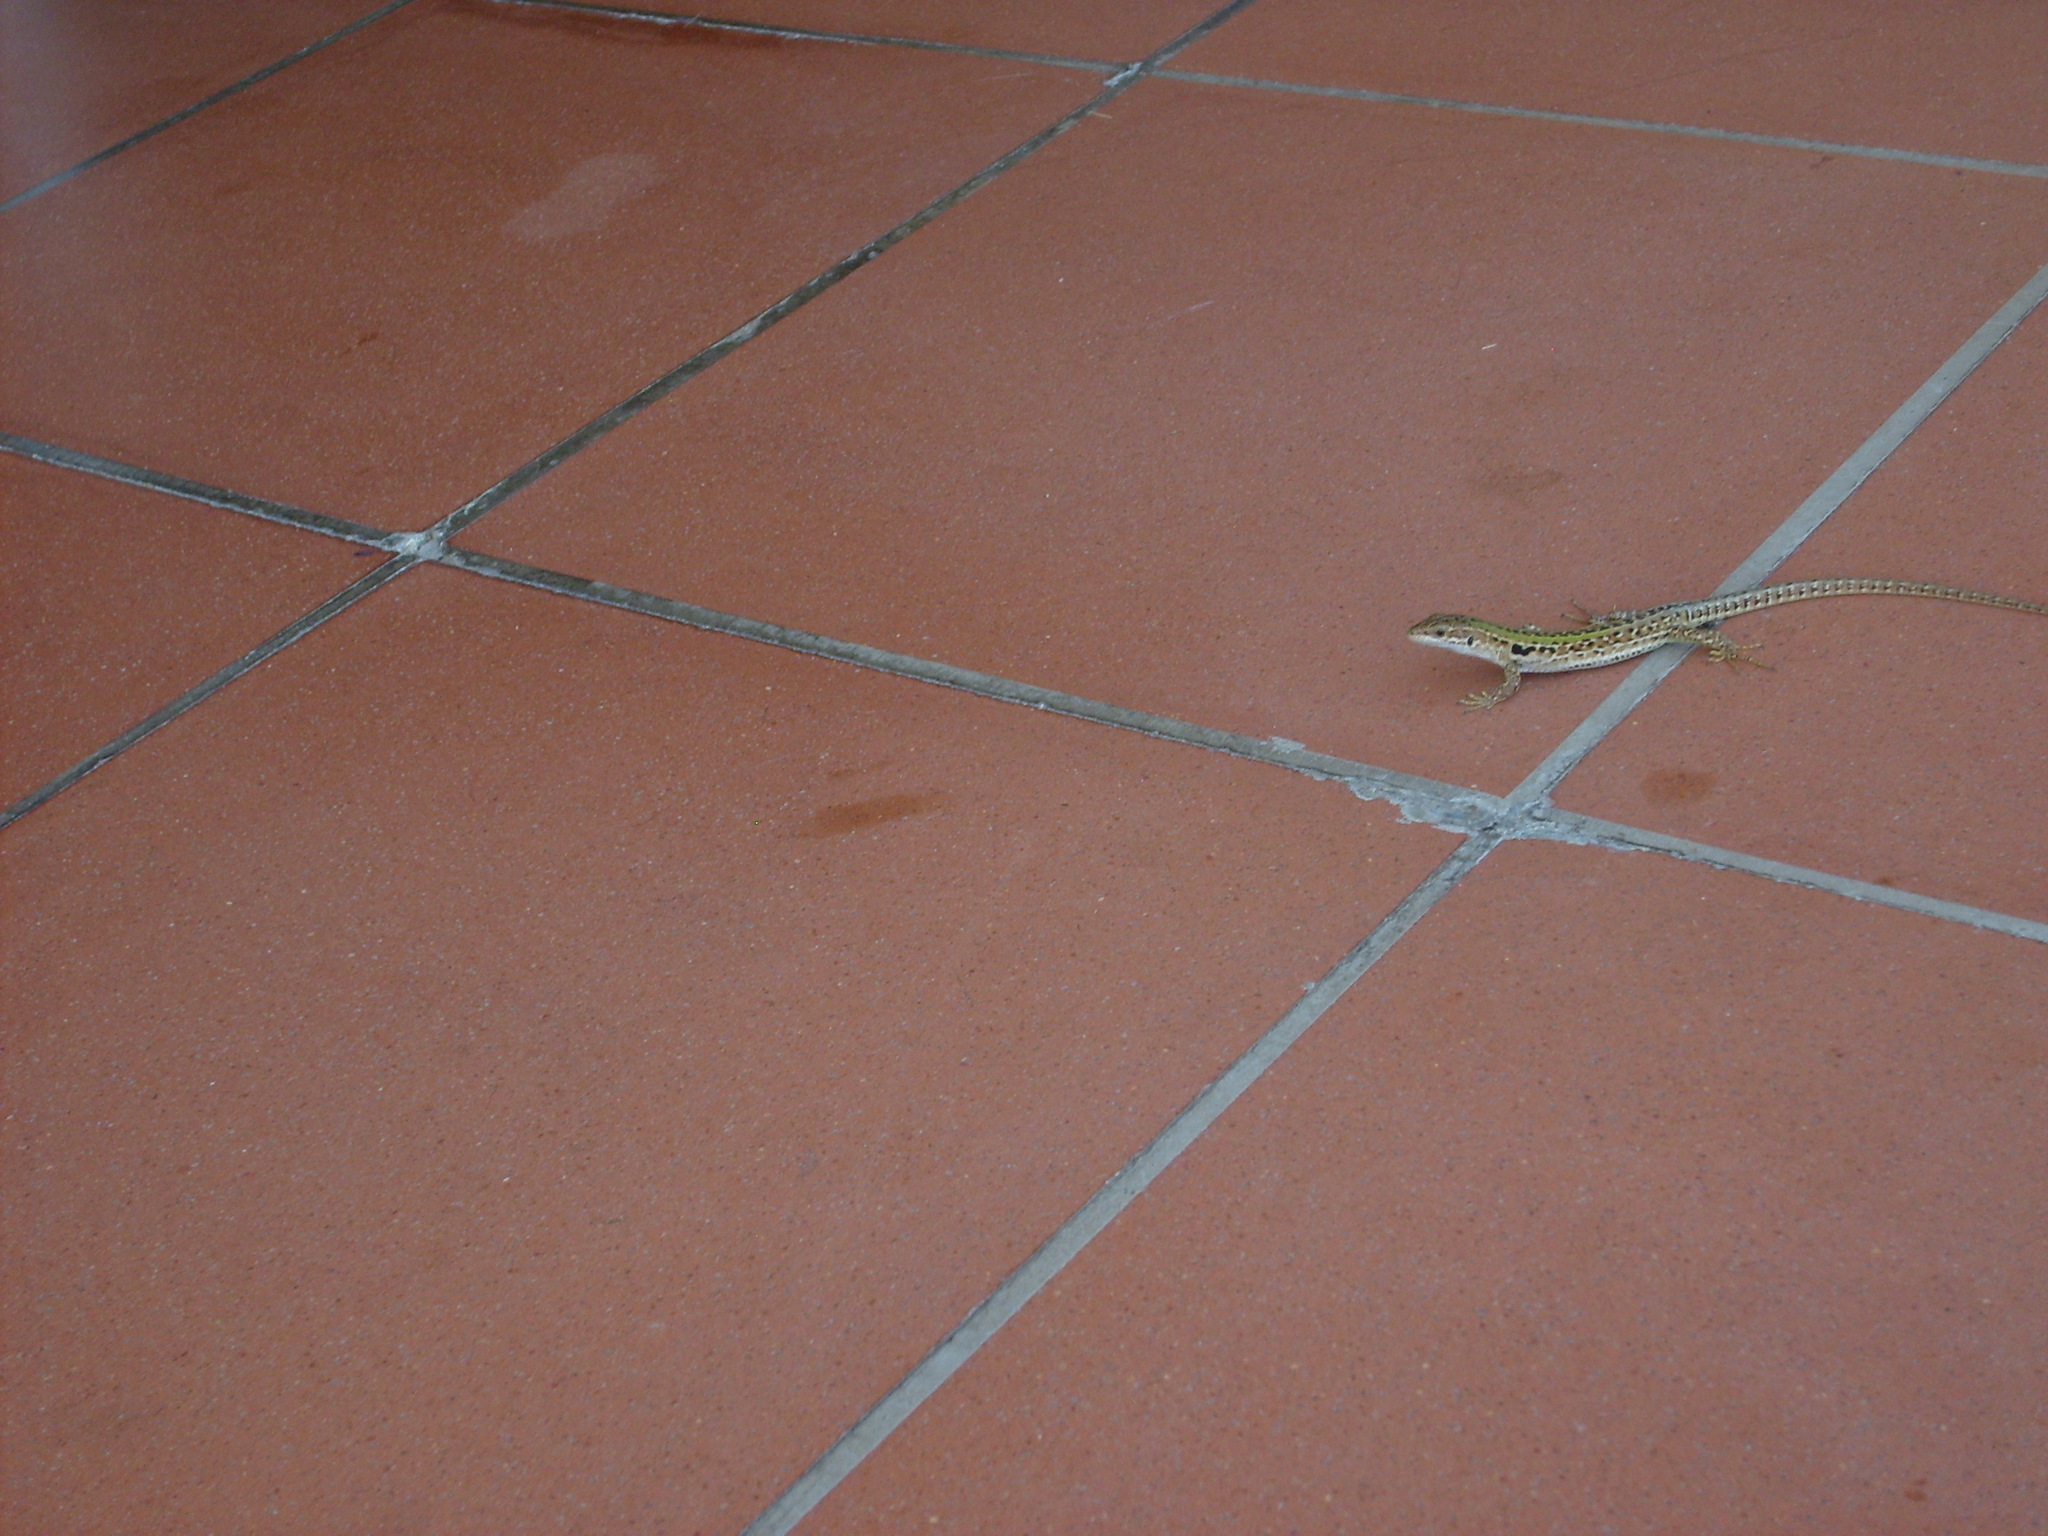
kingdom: Animalia
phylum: Chordata
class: Squamata
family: Lacertidae
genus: Podarcis
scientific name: Podarcis siculus
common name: Italian wall lizard
